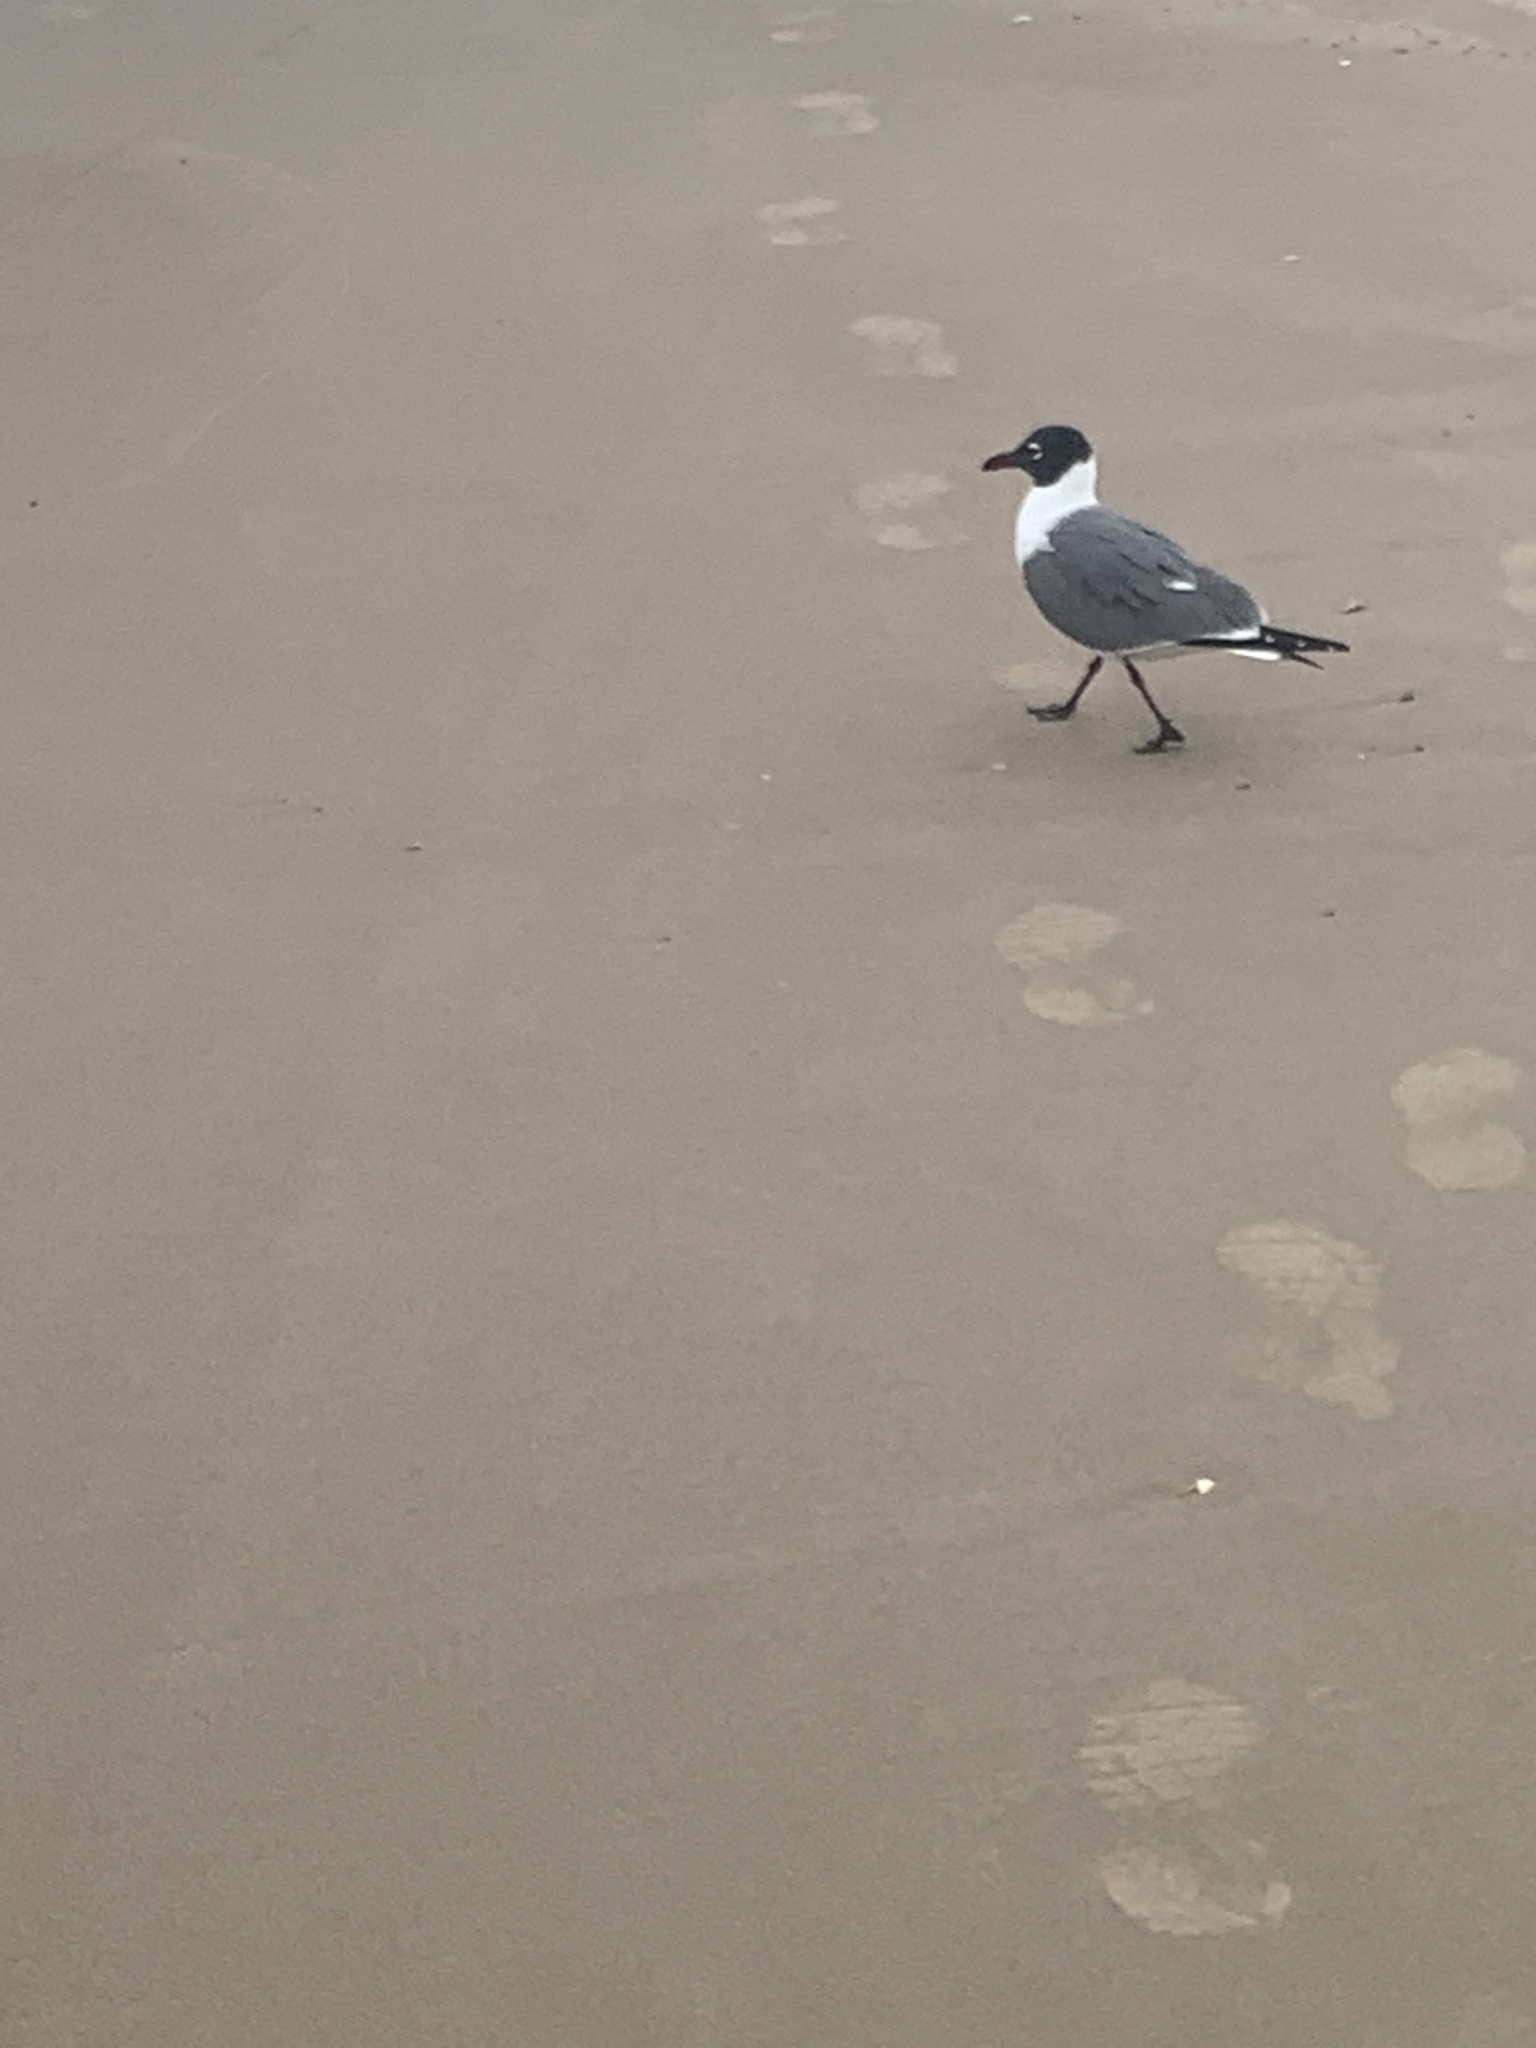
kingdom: Animalia
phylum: Chordata
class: Aves
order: Charadriiformes
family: Laridae
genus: Leucophaeus
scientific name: Leucophaeus atricilla
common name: Laughing gull
